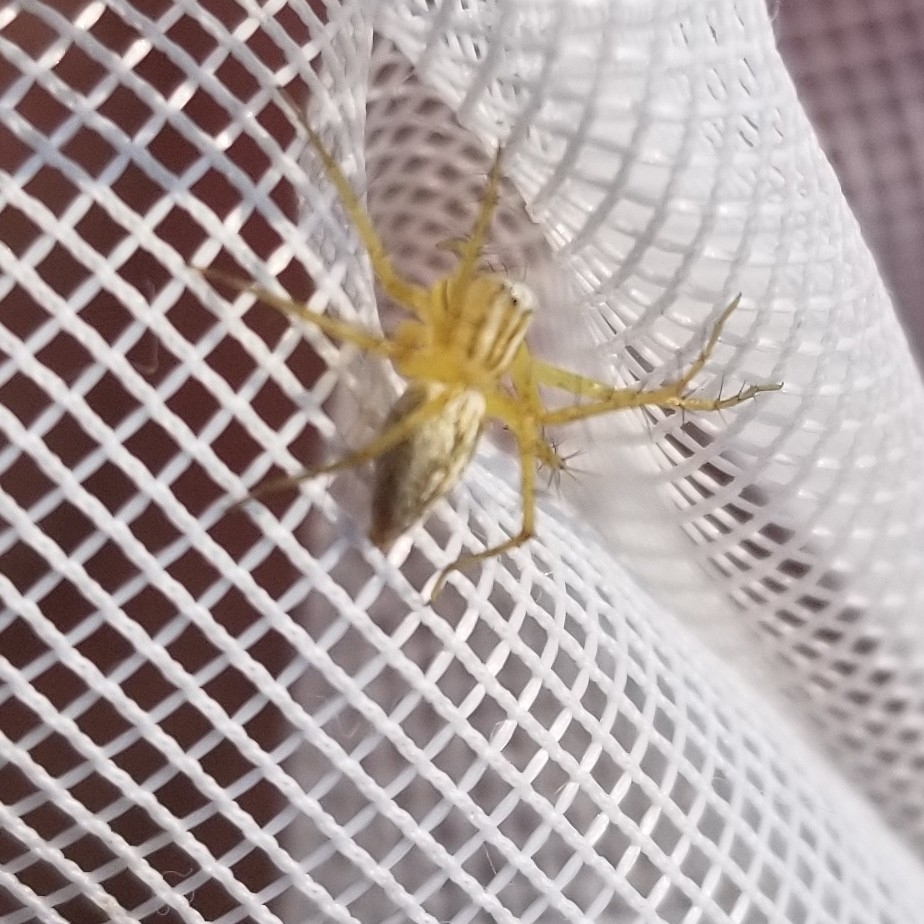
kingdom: Animalia
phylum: Arthropoda
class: Arachnida
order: Araneae
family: Oxyopidae
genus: Oxyopes
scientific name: Oxyopes salticus
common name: Lynx spiders
